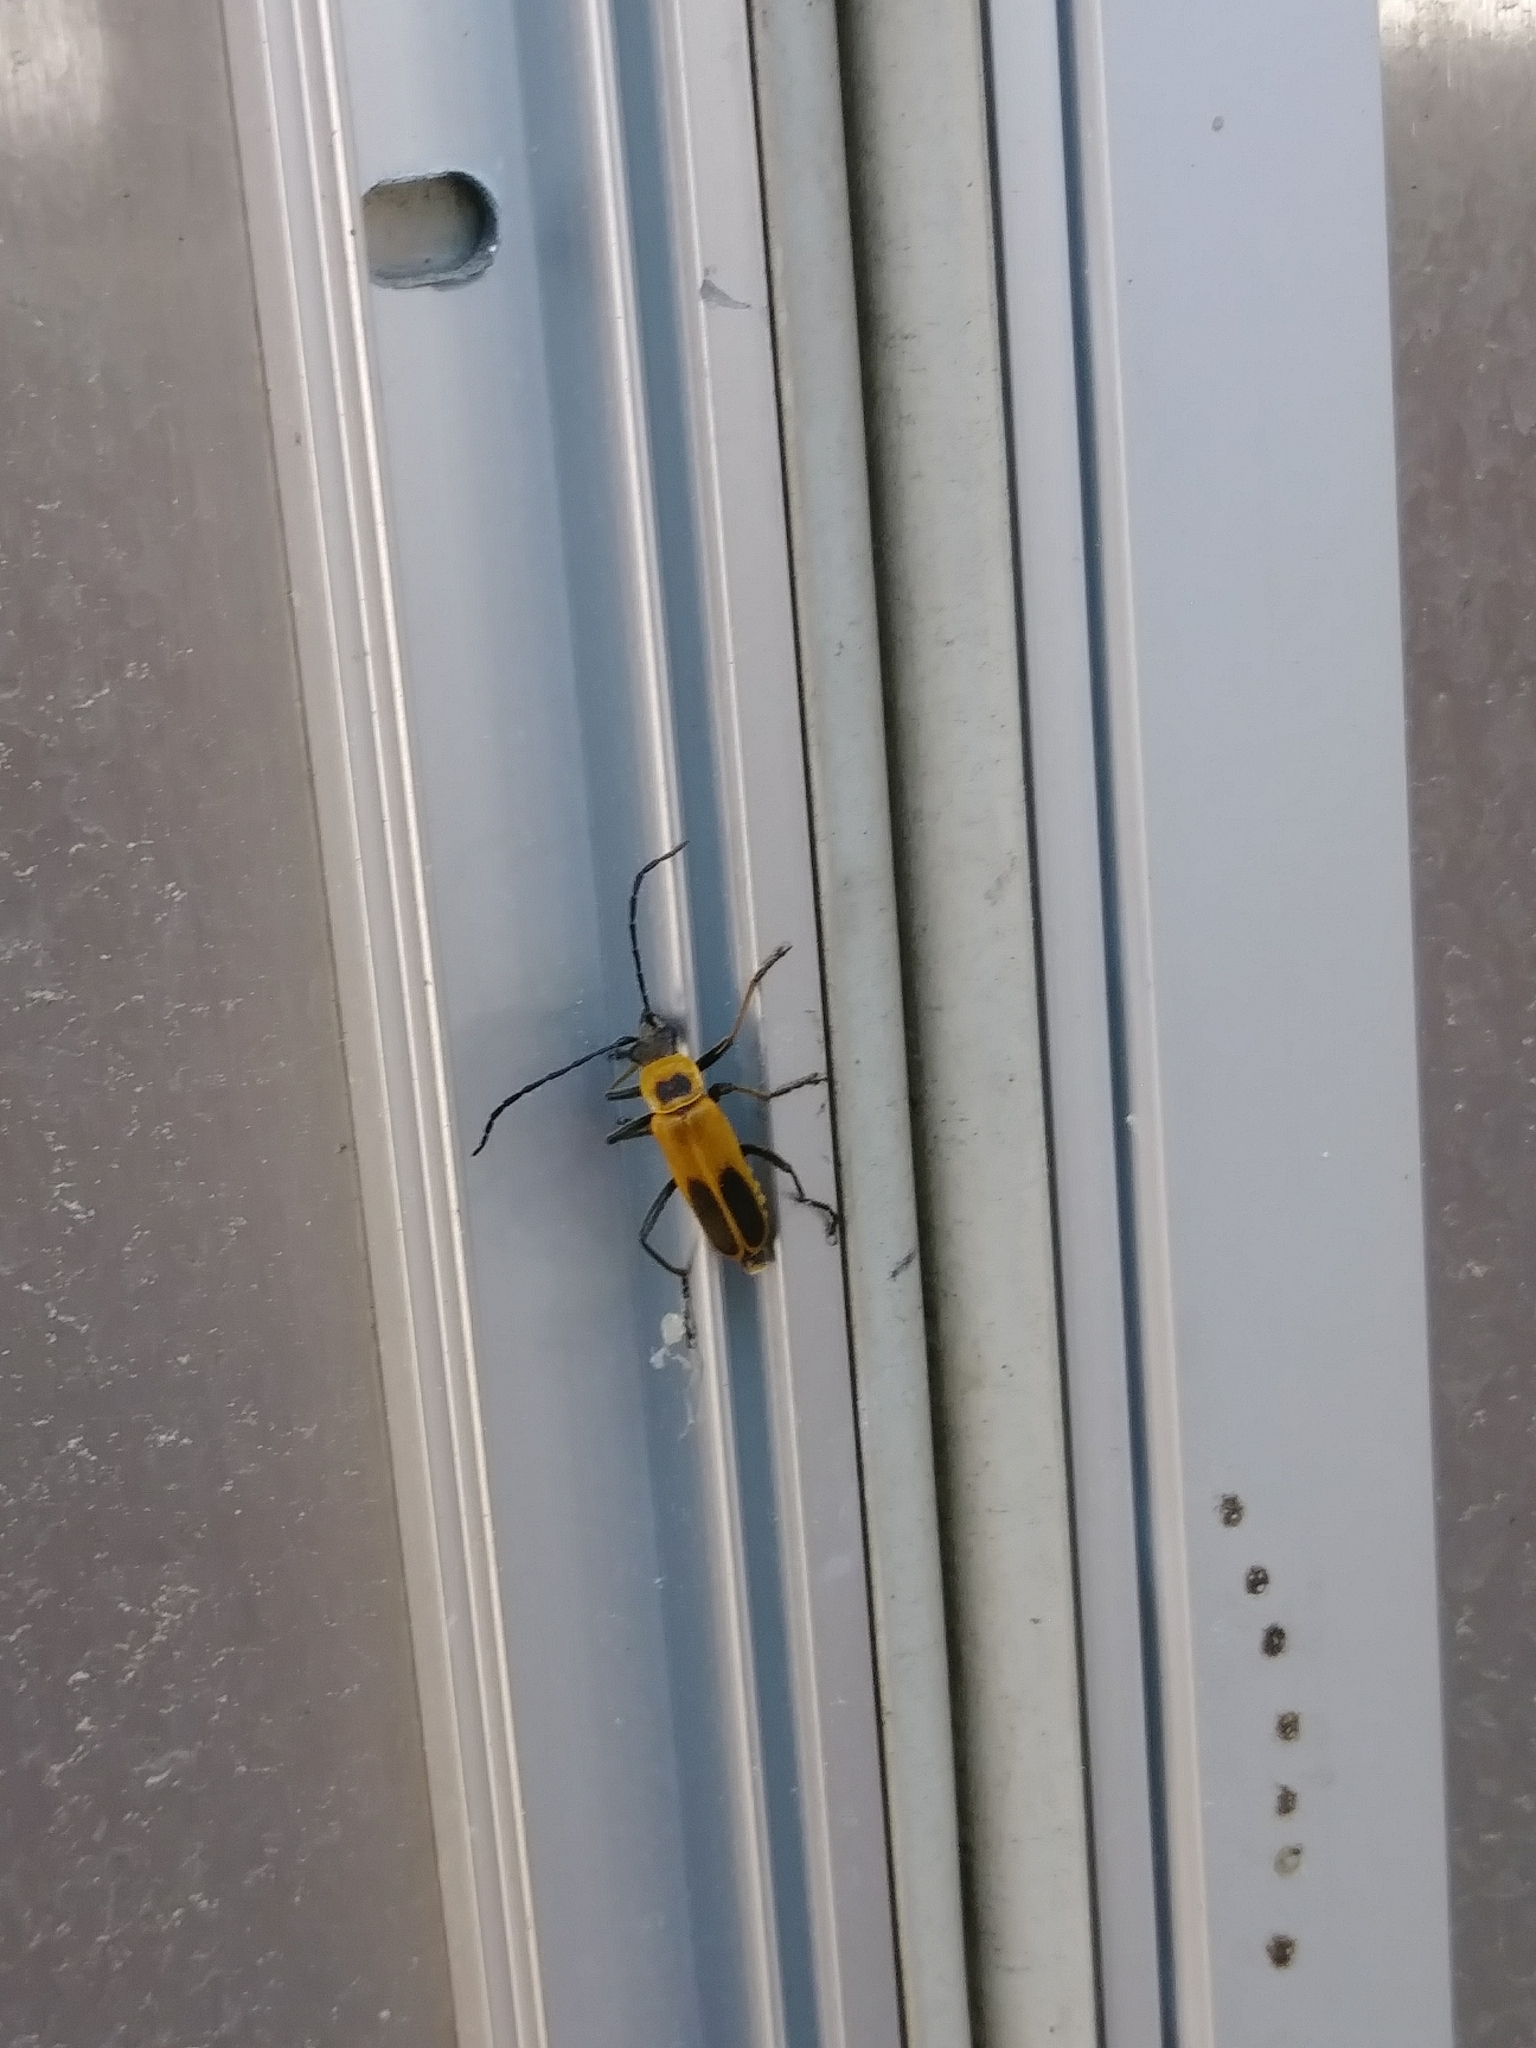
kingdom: Animalia
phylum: Arthropoda
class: Insecta
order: Coleoptera
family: Cantharidae
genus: Chauliognathus
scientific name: Chauliognathus pensylvanicus
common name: Goldenrod soldier beetle
